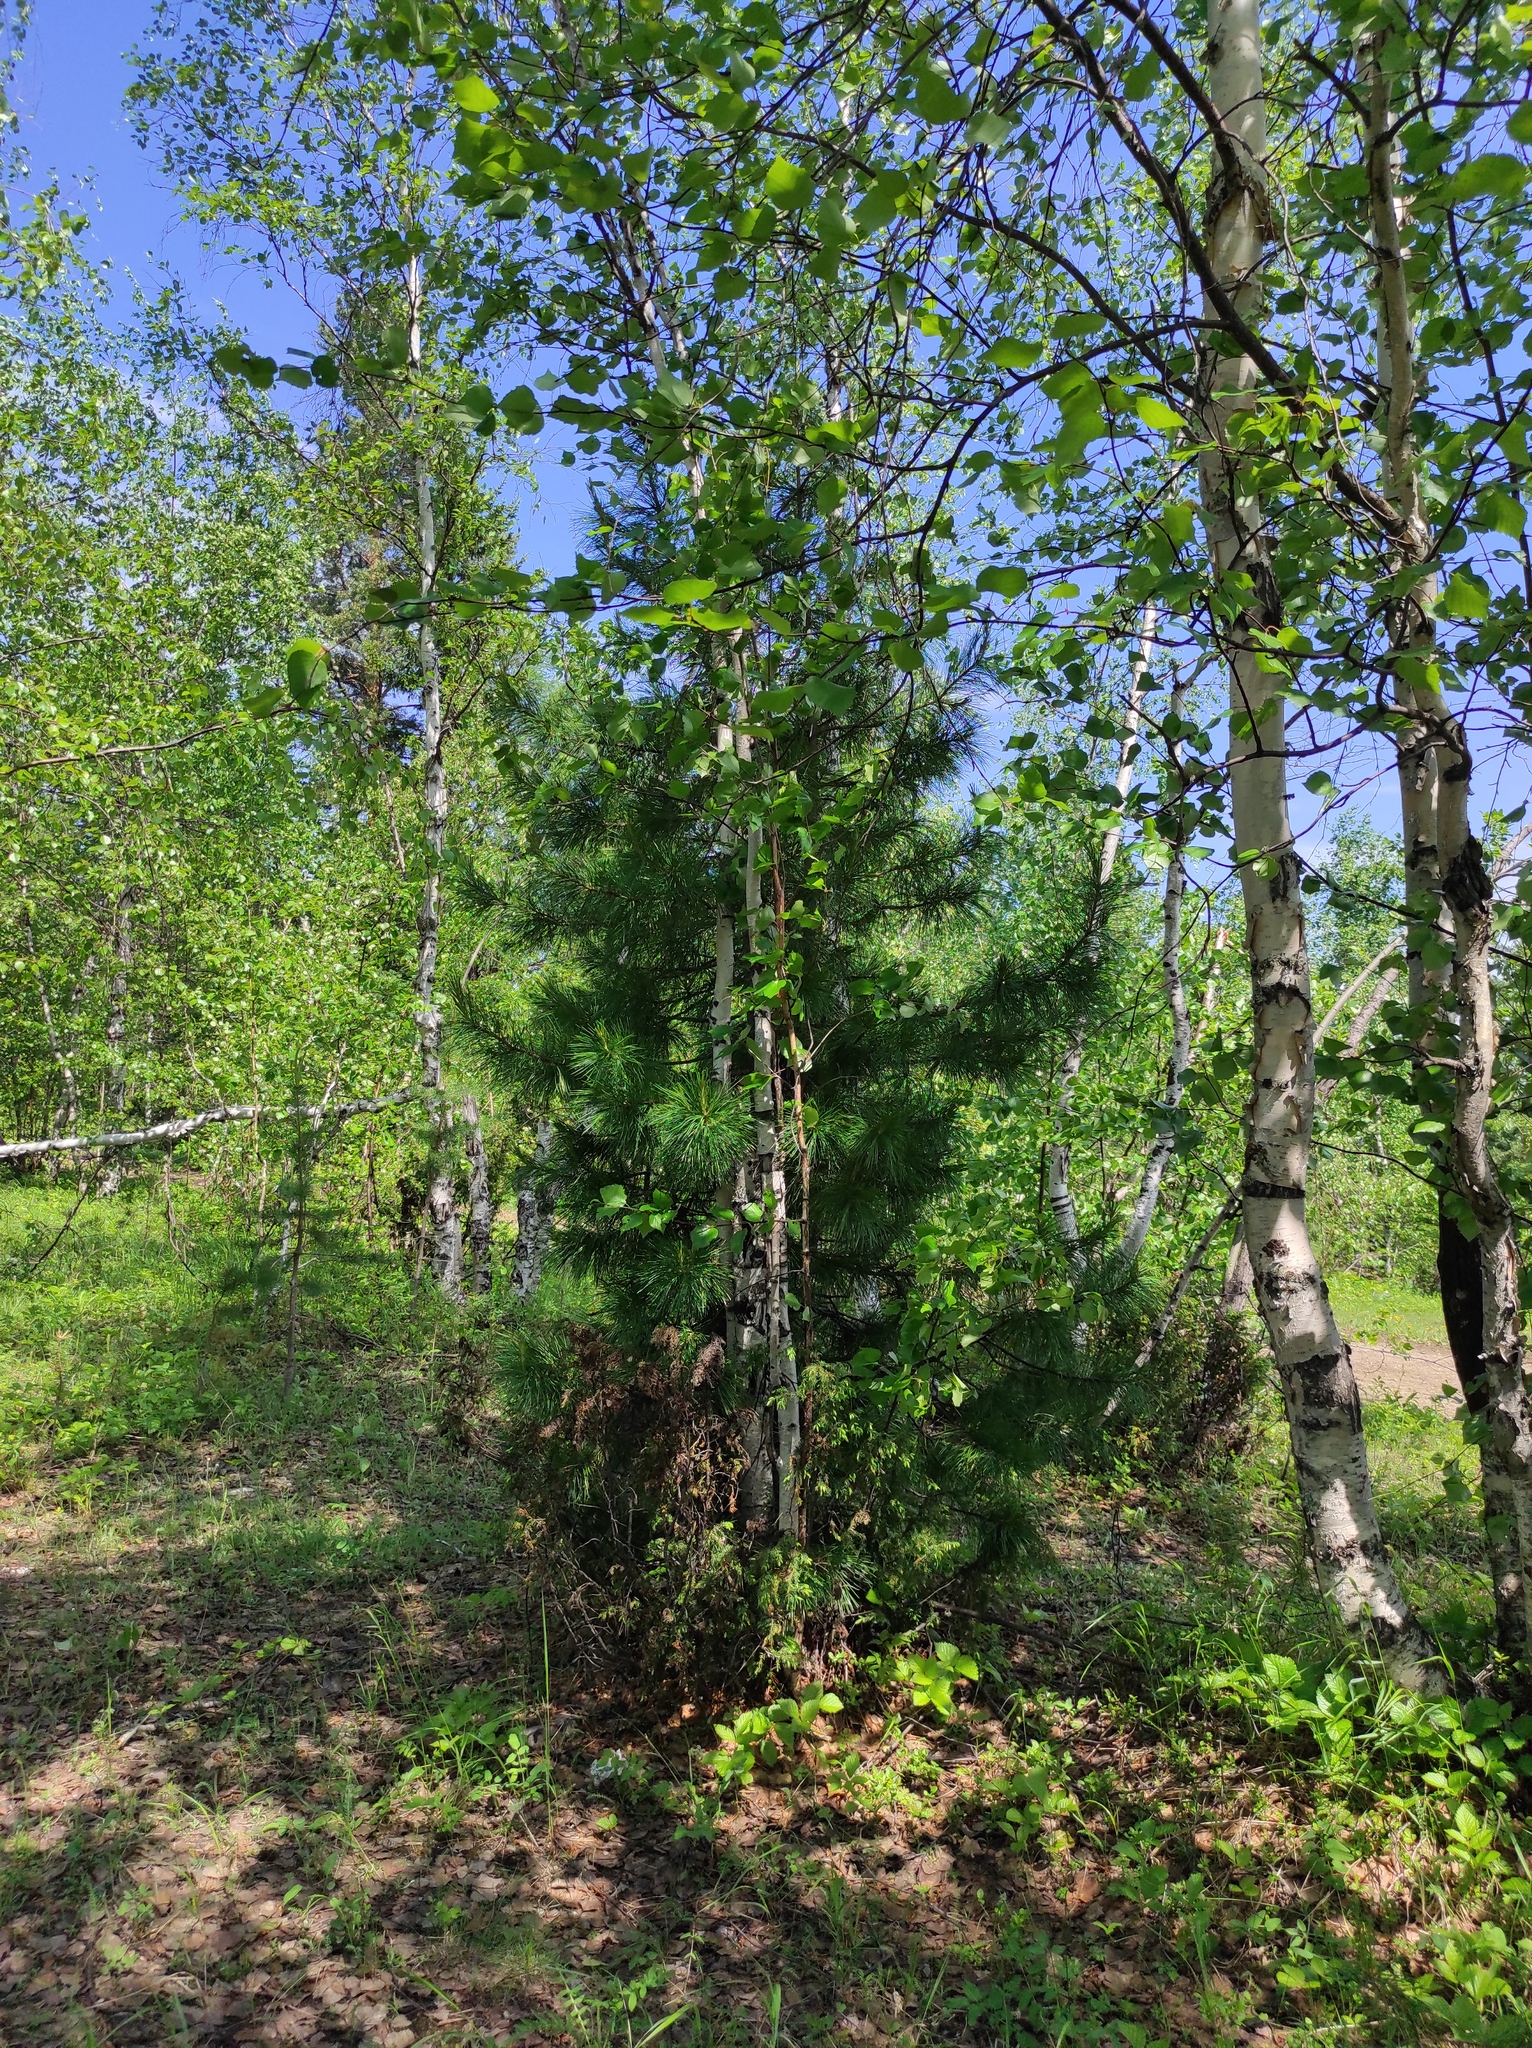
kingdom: Plantae
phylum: Tracheophyta
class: Pinopsida
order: Pinales
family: Pinaceae
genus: Pinus
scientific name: Pinus sibirica
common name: Siberian pine
